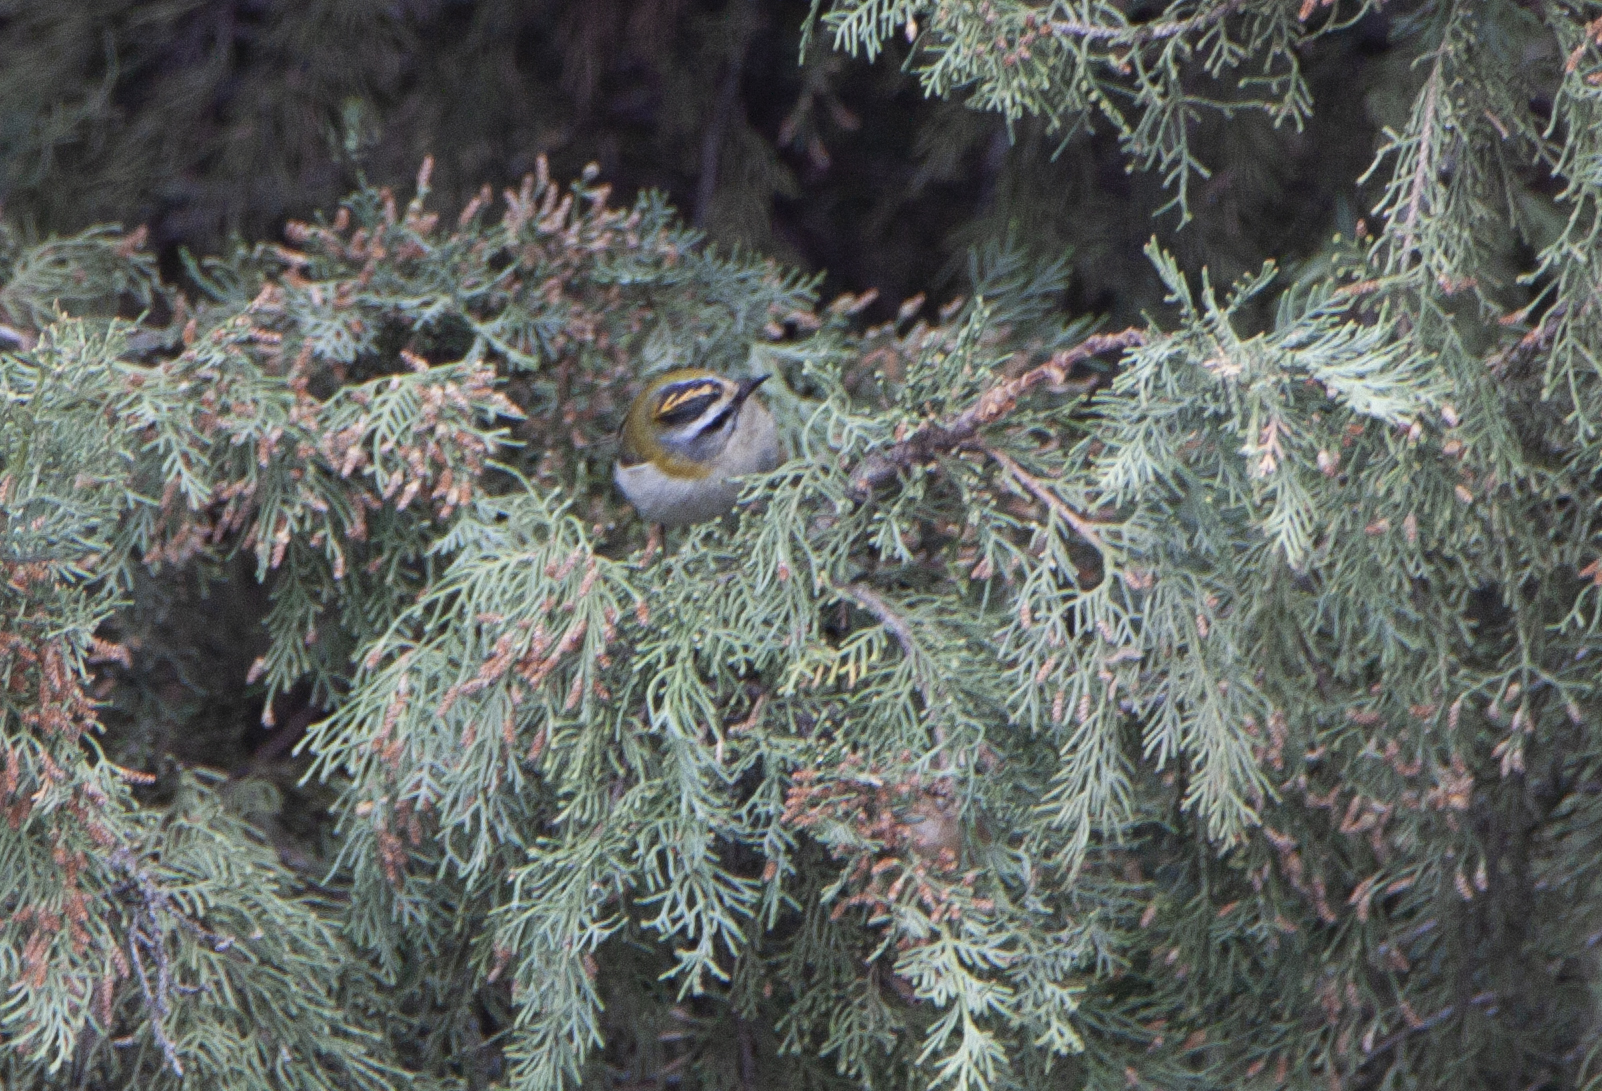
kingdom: Animalia
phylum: Chordata
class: Aves
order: Passeriformes
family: Regulidae
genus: Regulus
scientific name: Regulus ignicapilla
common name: Firecrest
